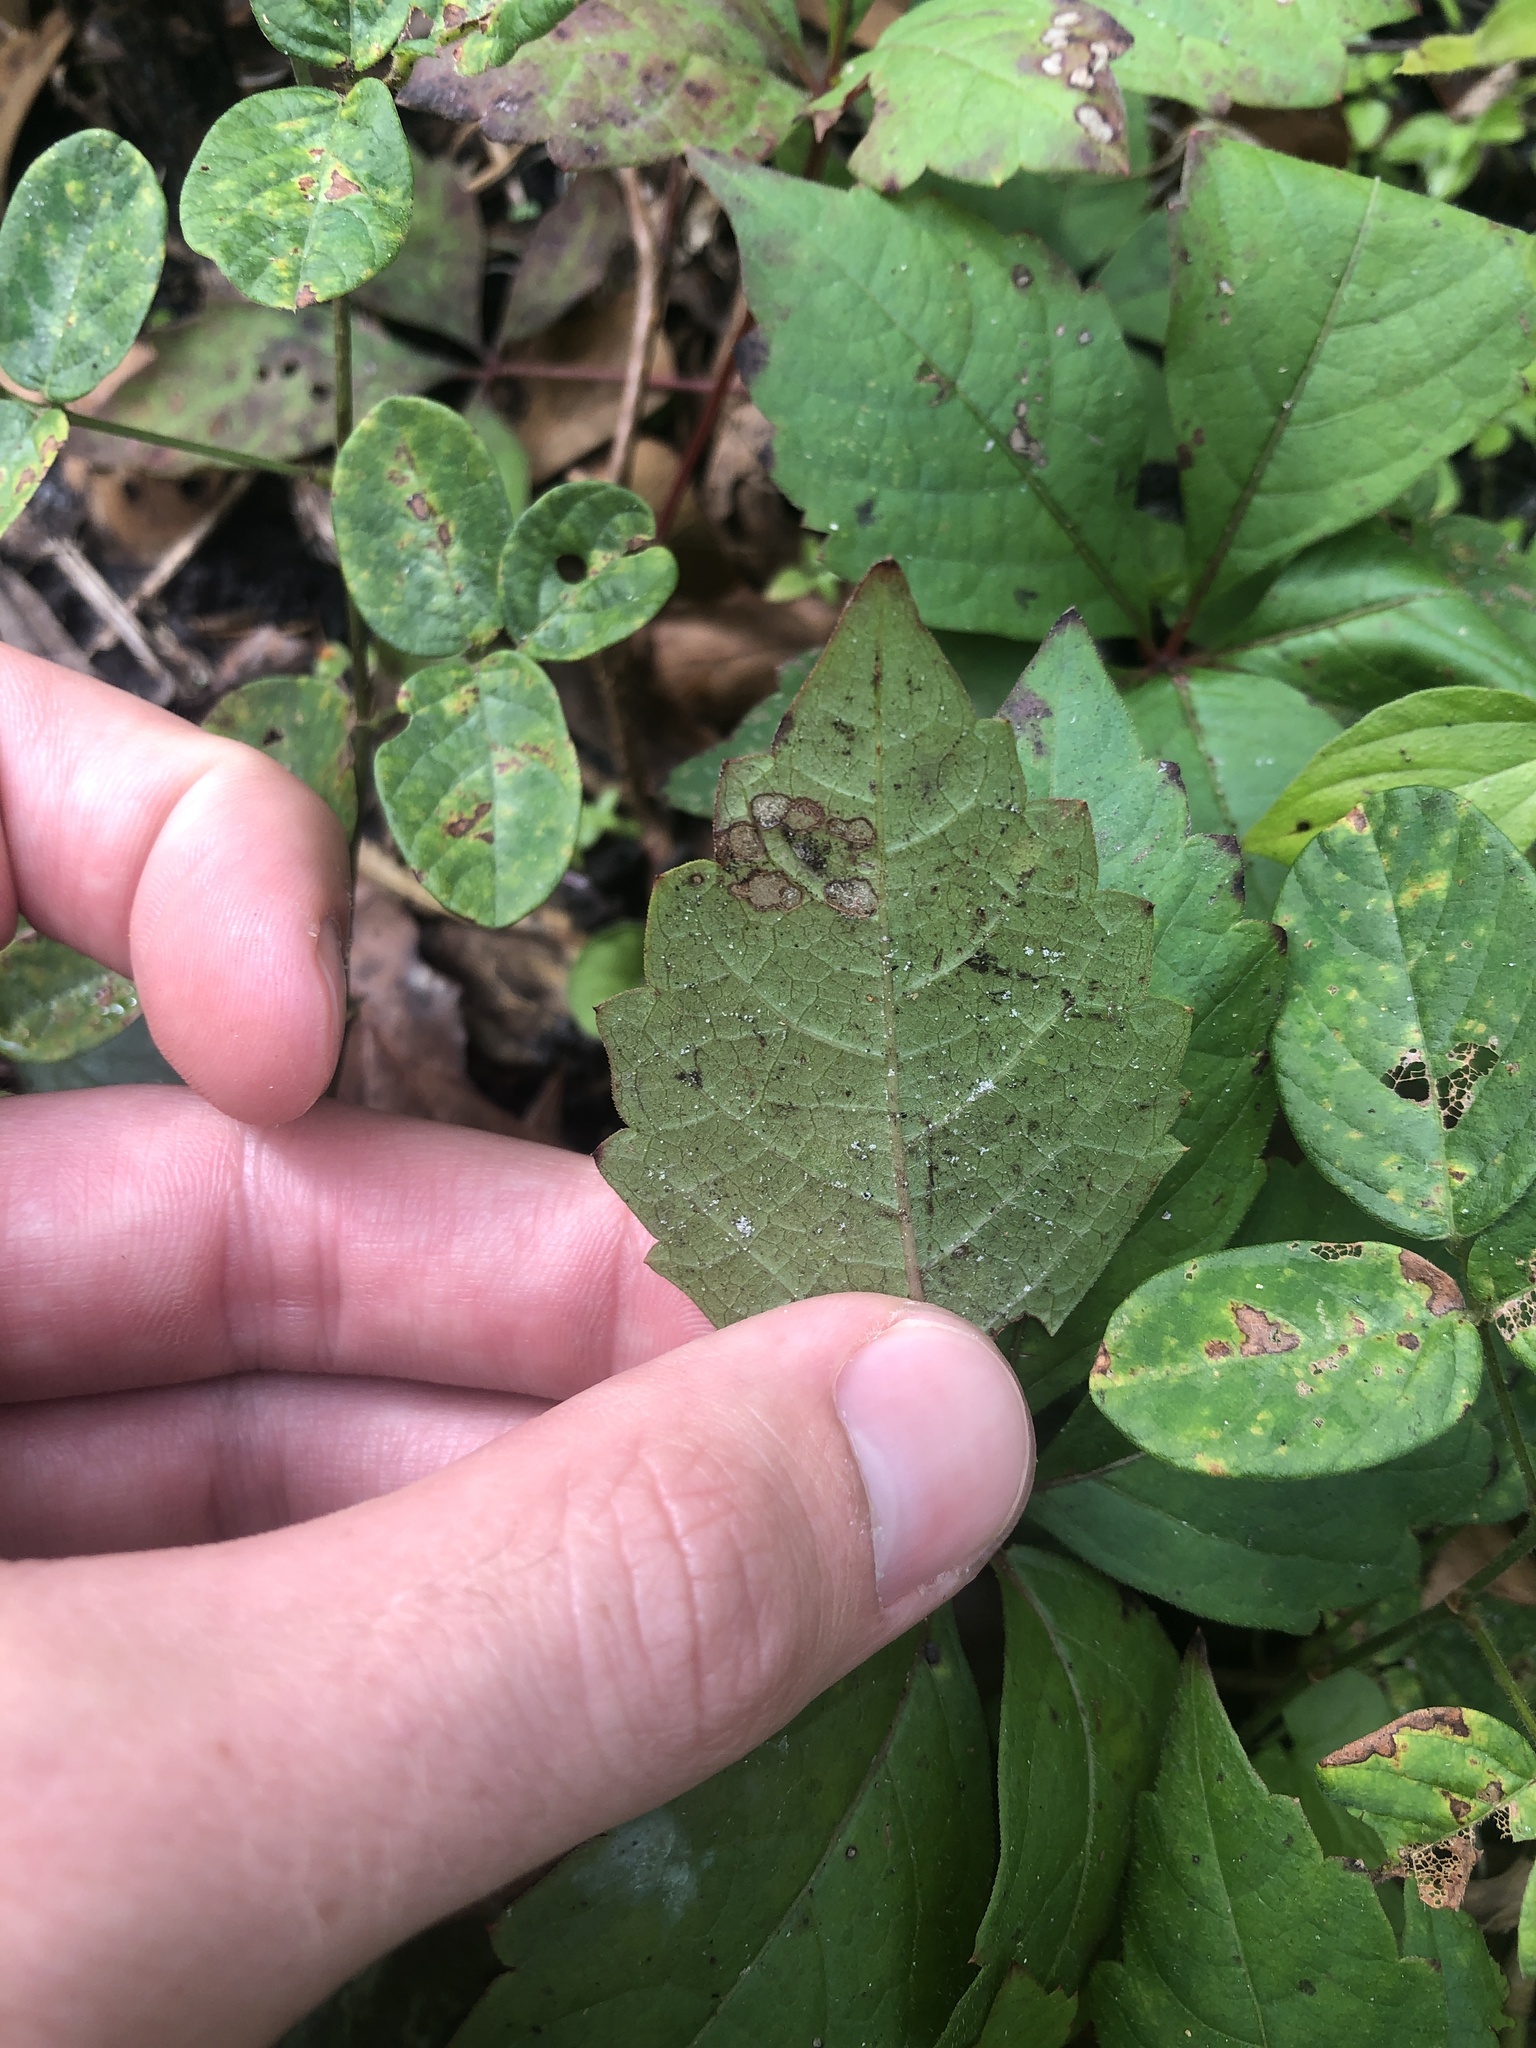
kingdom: Plantae
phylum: Tracheophyta
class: Magnoliopsida
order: Vitales
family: Vitaceae
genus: Parthenocissus
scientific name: Parthenocissus quinquefolia
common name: Virginia-creeper
